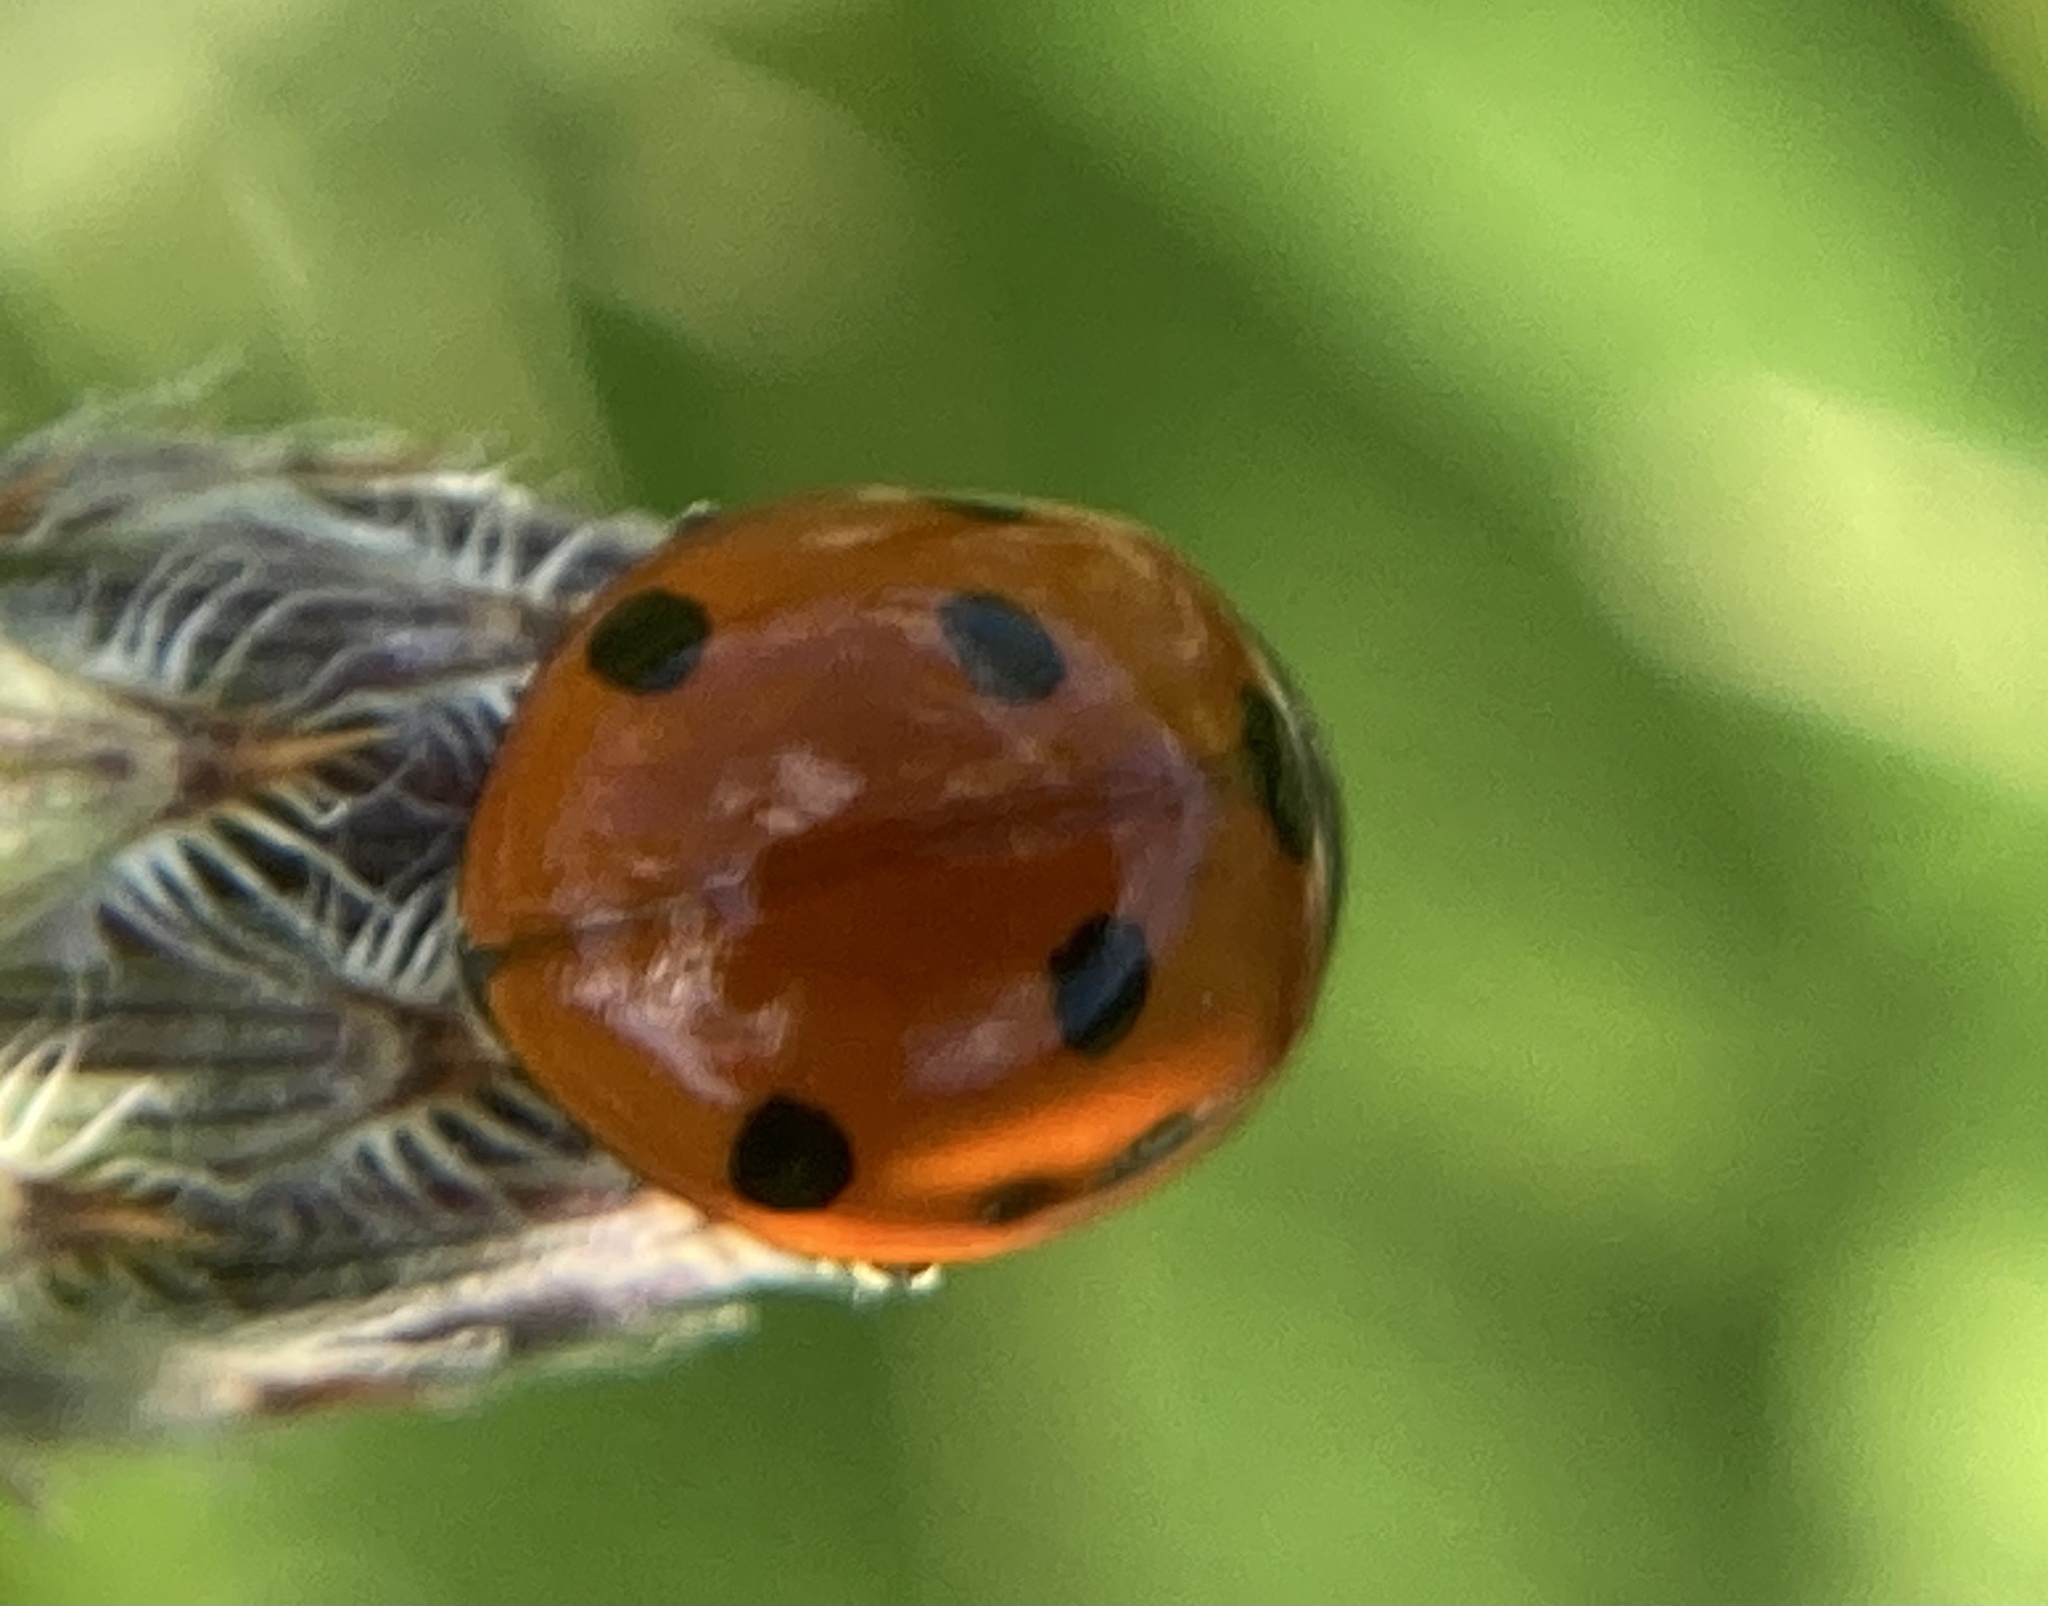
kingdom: Animalia
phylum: Arthropoda
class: Insecta
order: Coleoptera
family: Coccinellidae
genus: Coccinella
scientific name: Coccinella septempunctata
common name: Sevenspotted lady beetle
